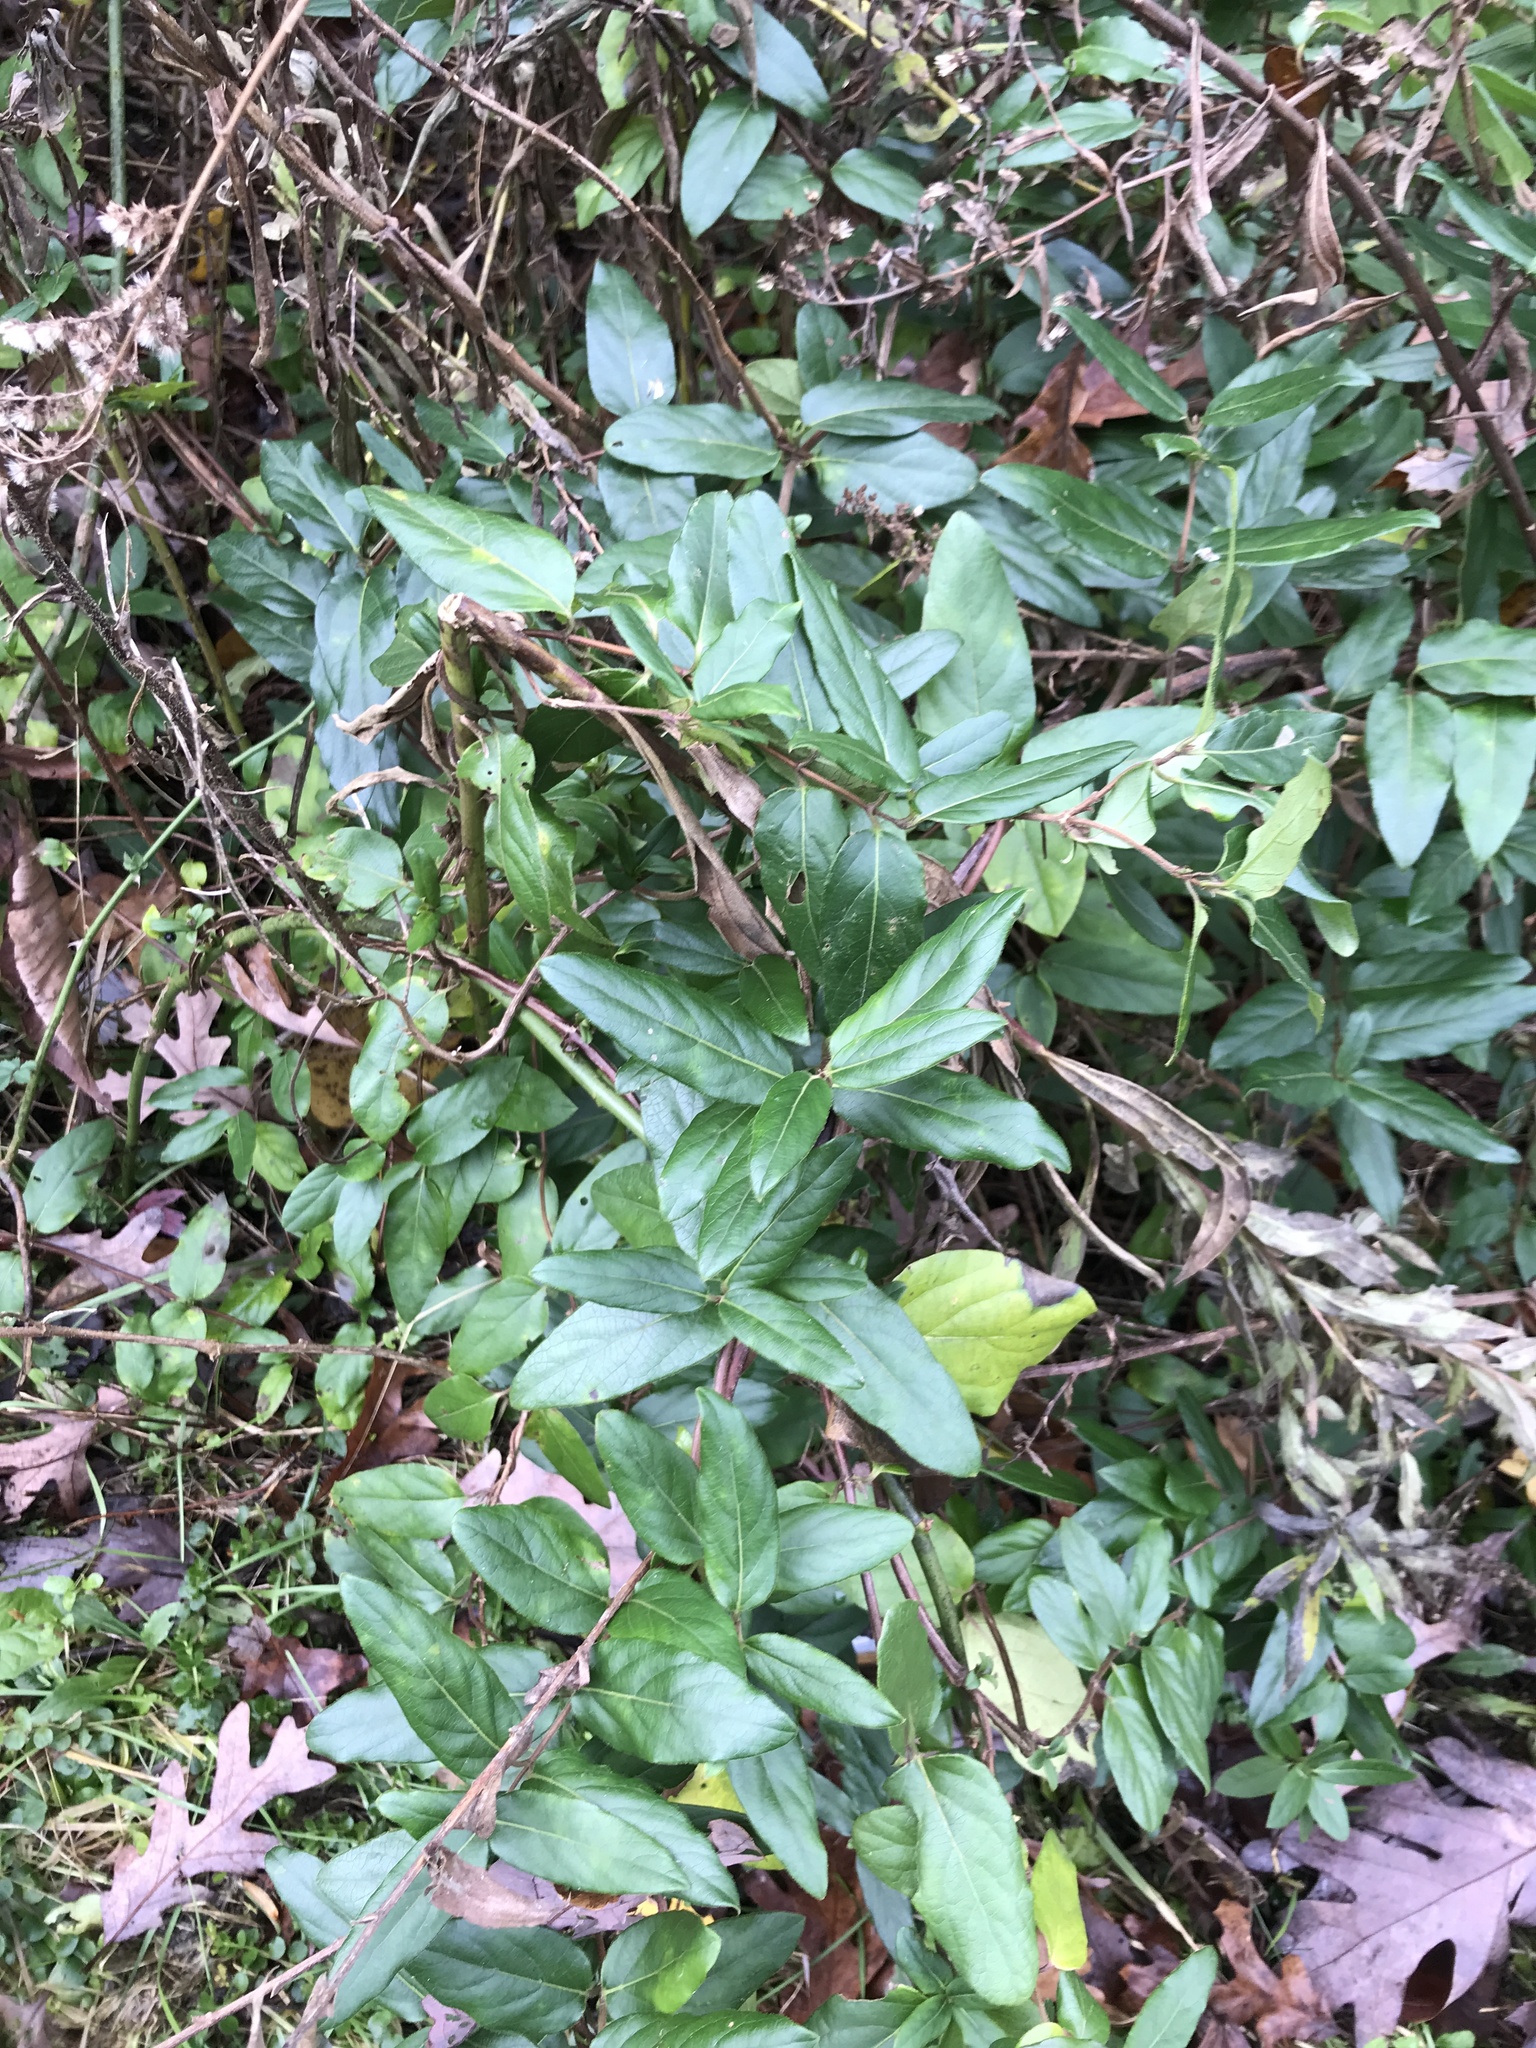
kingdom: Plantae
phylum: Tracheophyta
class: Magnoliopsida
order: Dipsacales
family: Caprifoliaceae
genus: Lonicera
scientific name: Lonicera japonica
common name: Japanese honeysuckle
